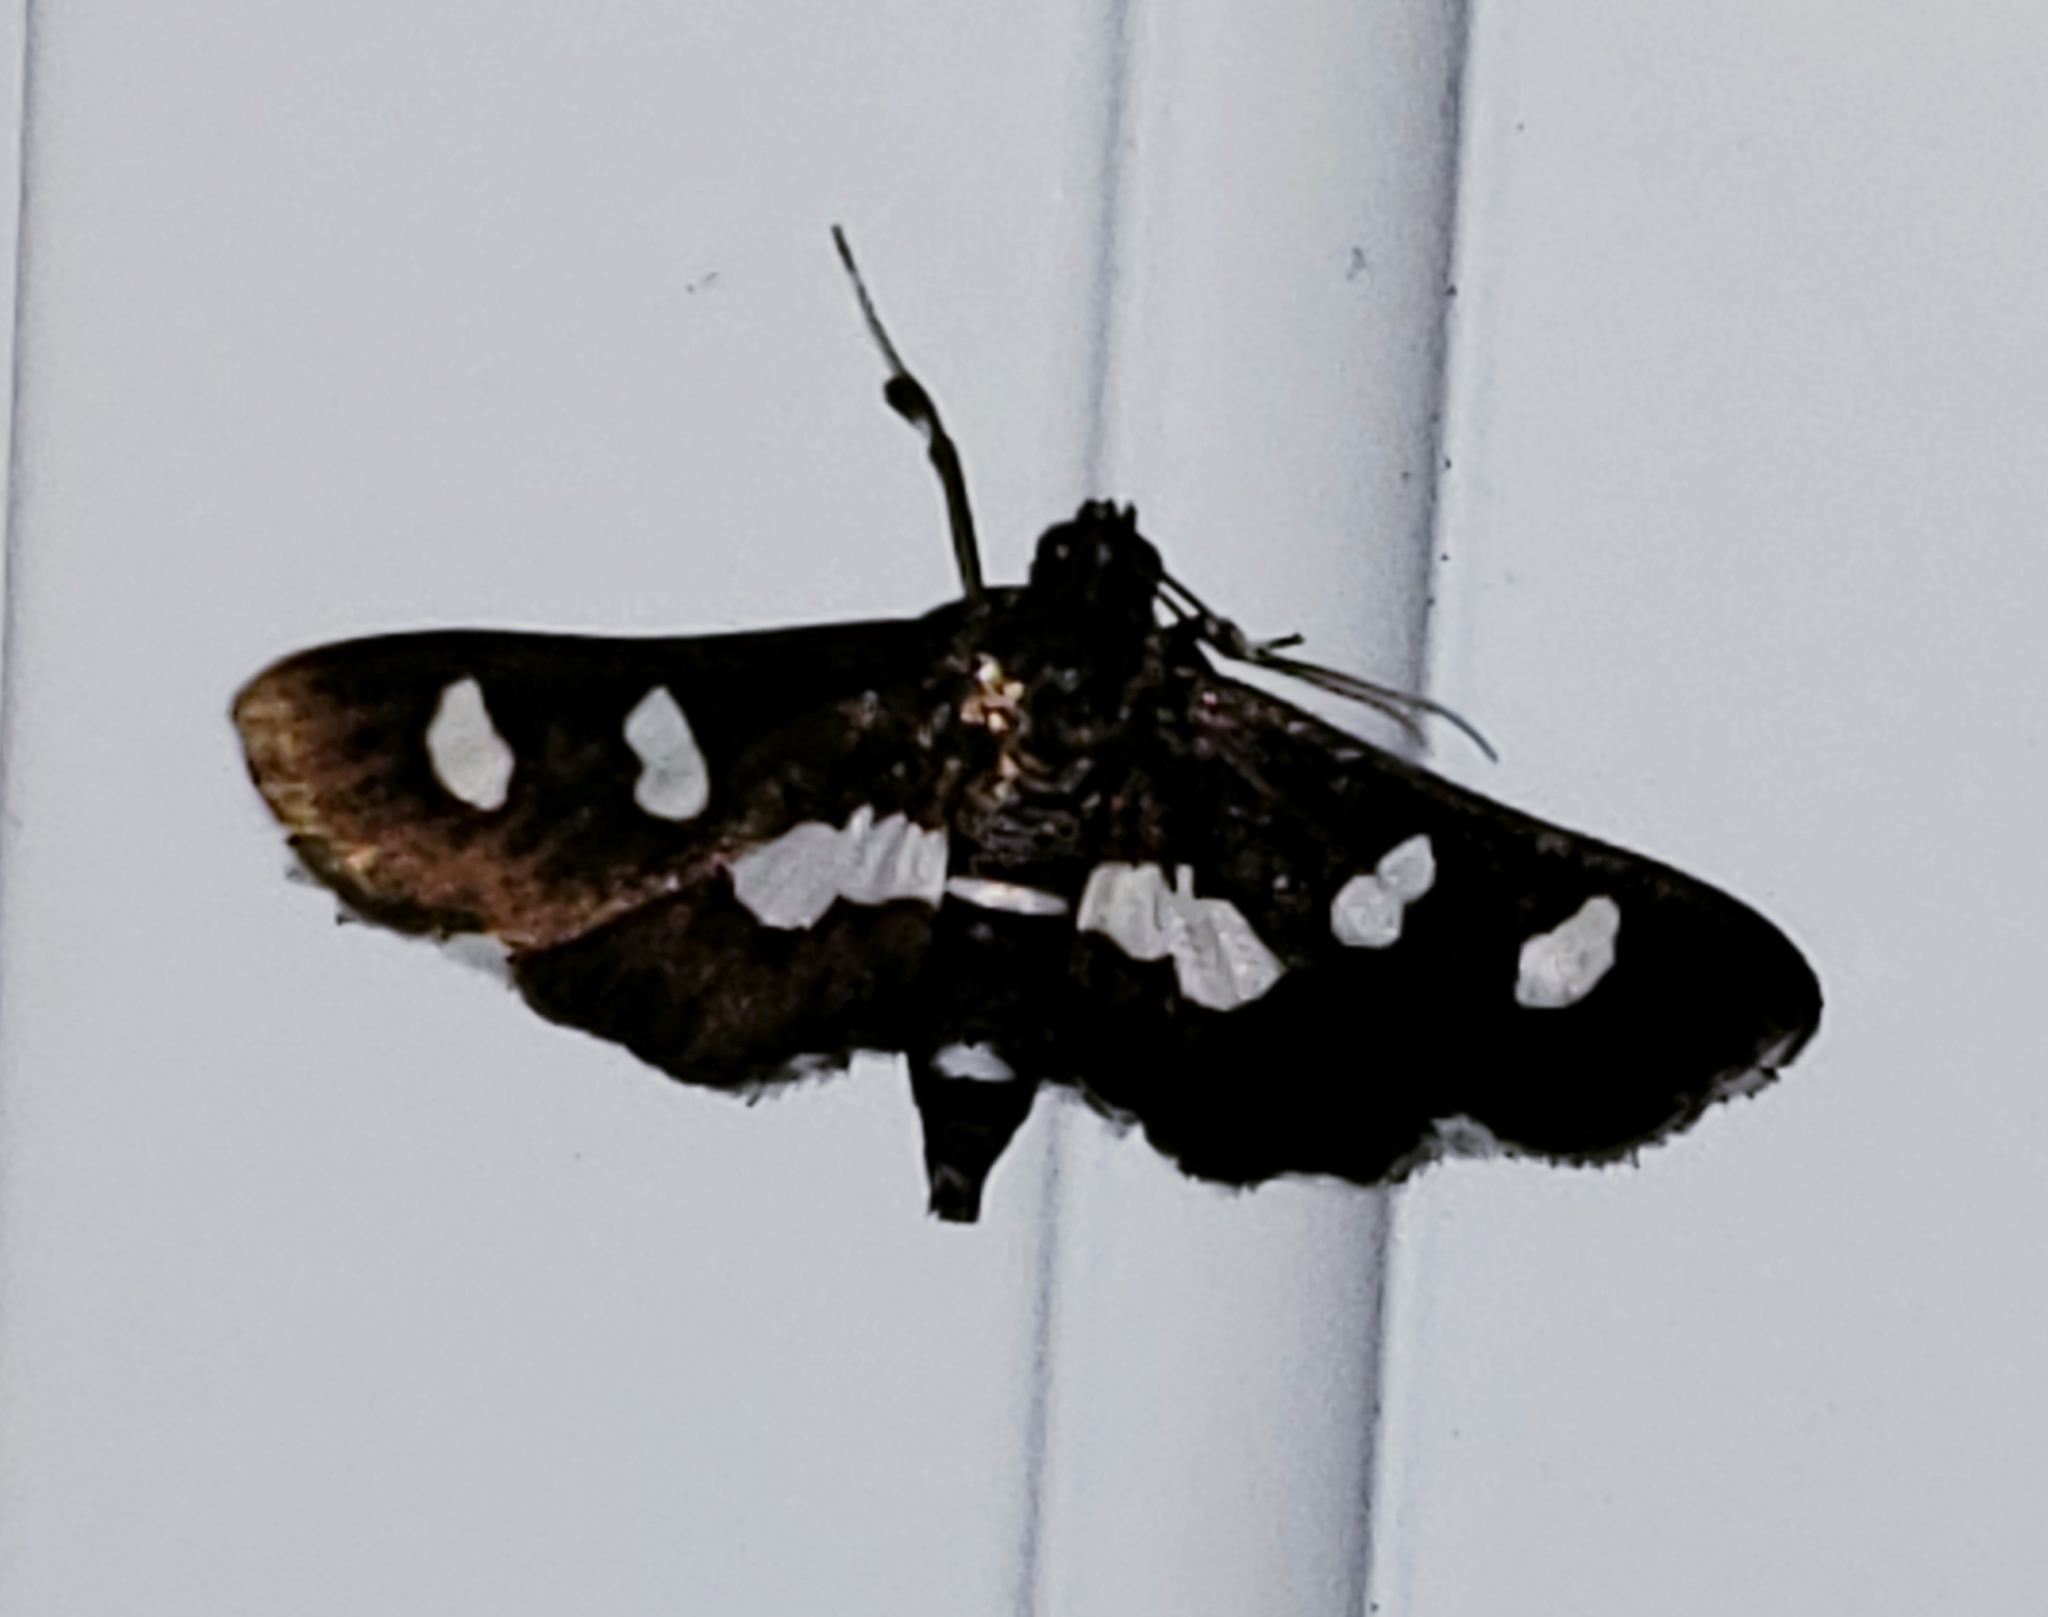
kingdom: Animalia
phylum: Arthropoda
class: Insecta
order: Lepidoptera
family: Crambidae
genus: Desmia
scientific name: Desmia funeralis
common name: Grape leaf folder moth
